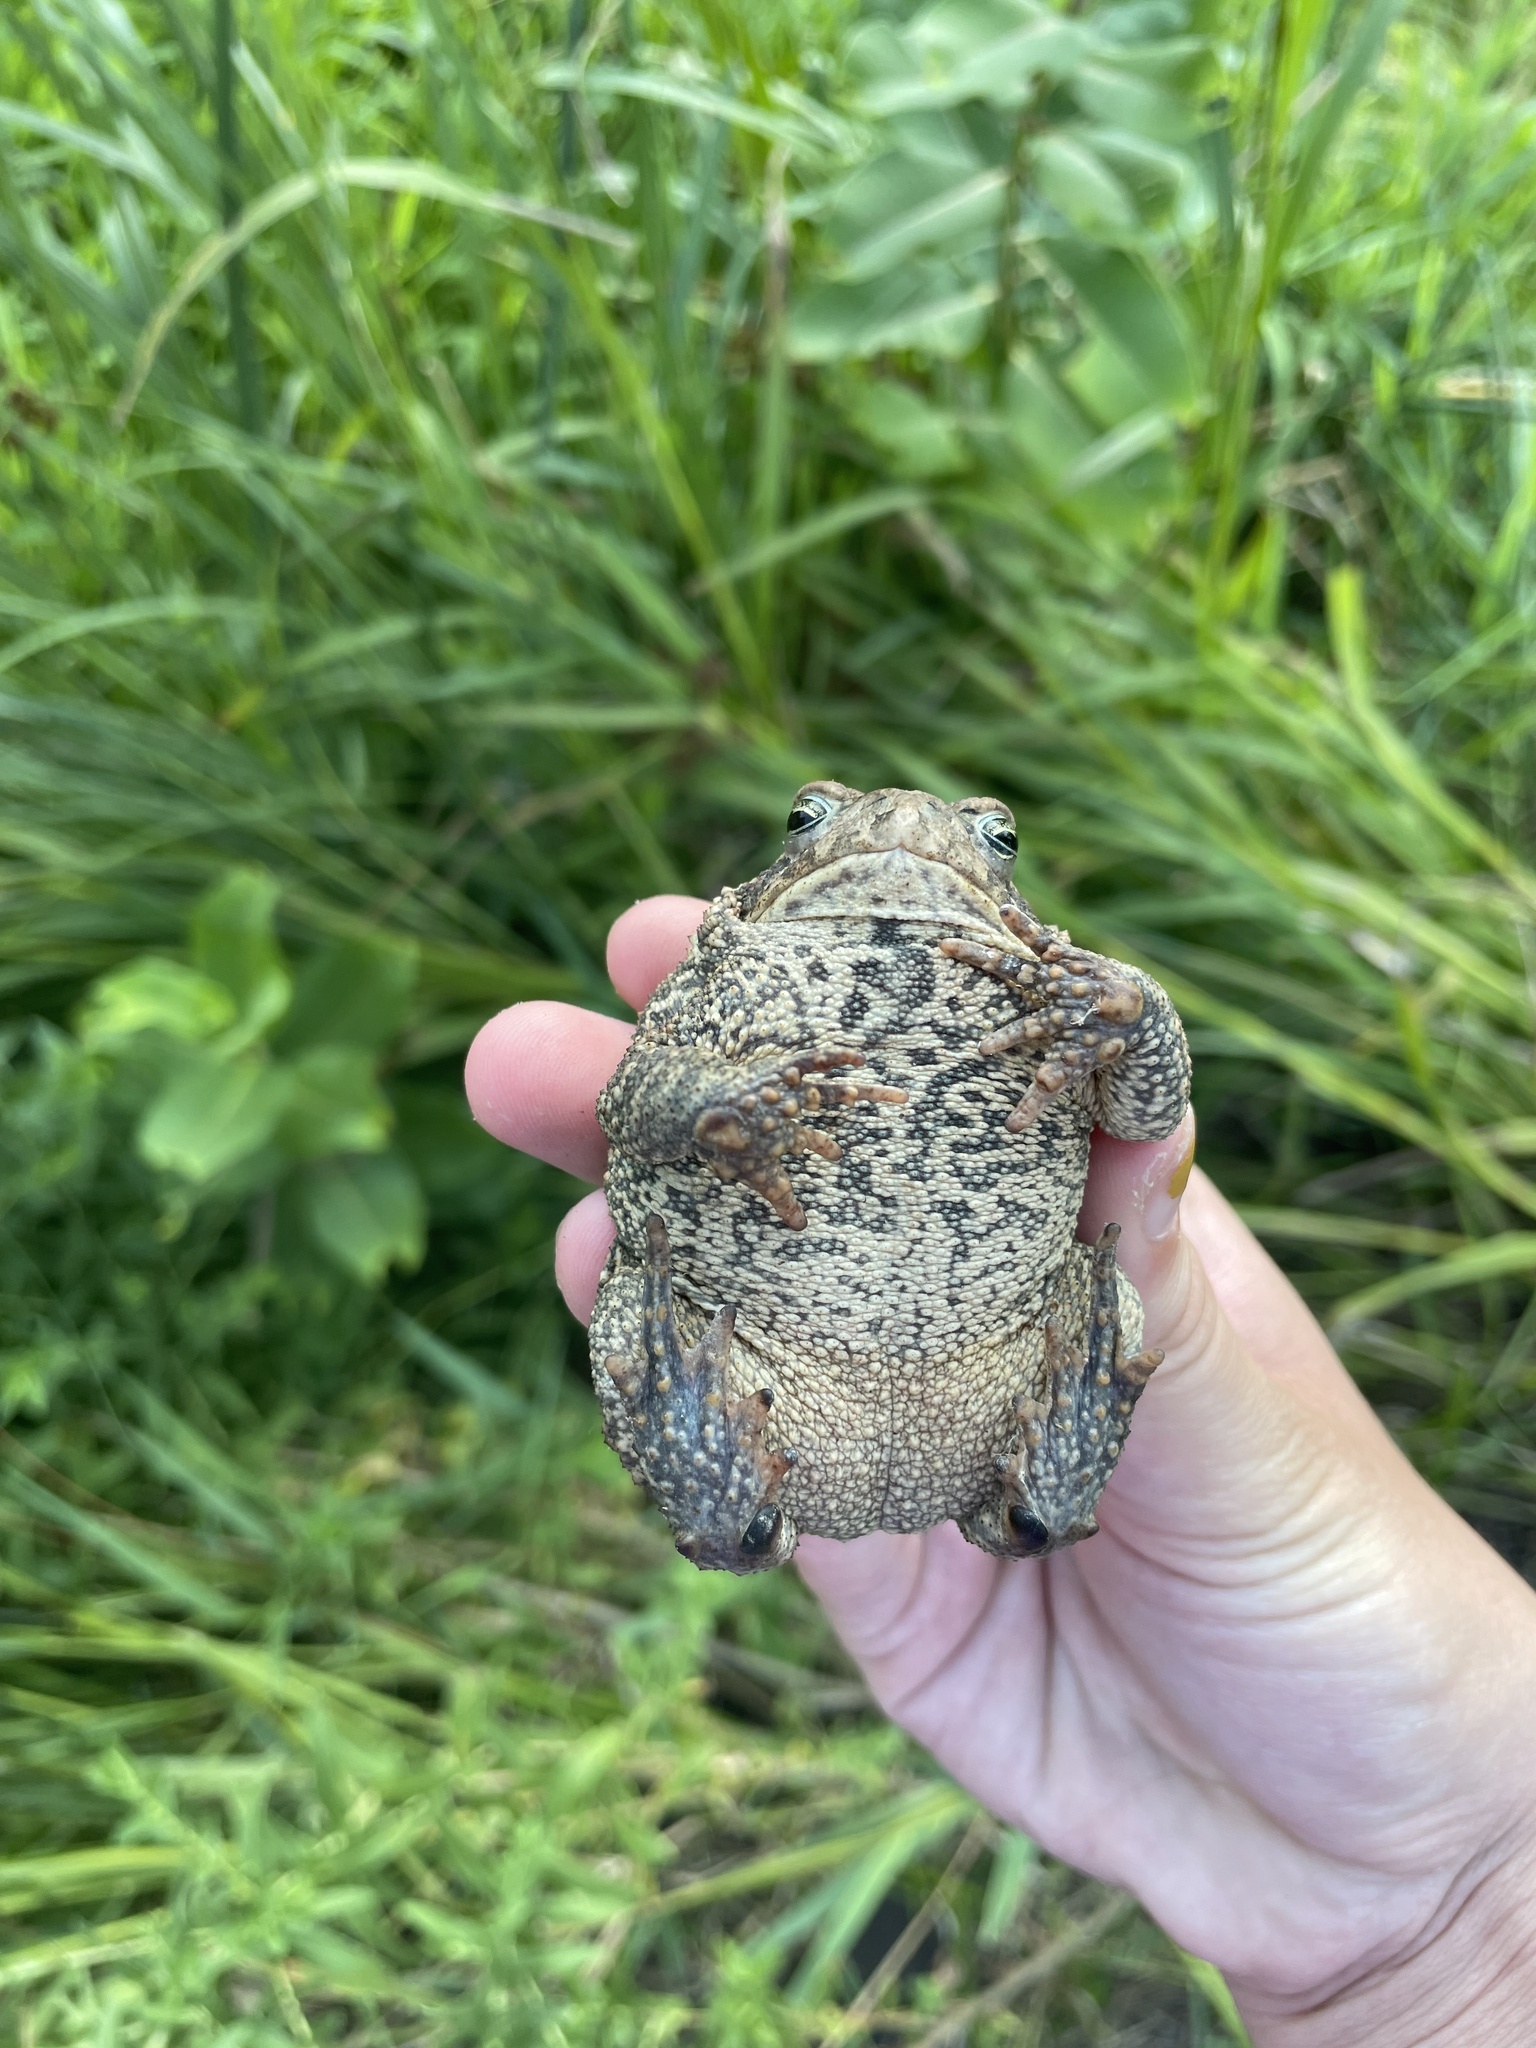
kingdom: Animalia
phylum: Chordata
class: Amphibia
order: Anura
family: Bufonidae
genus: Anaxyrus
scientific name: Anaxyrus americanus
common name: American toad
